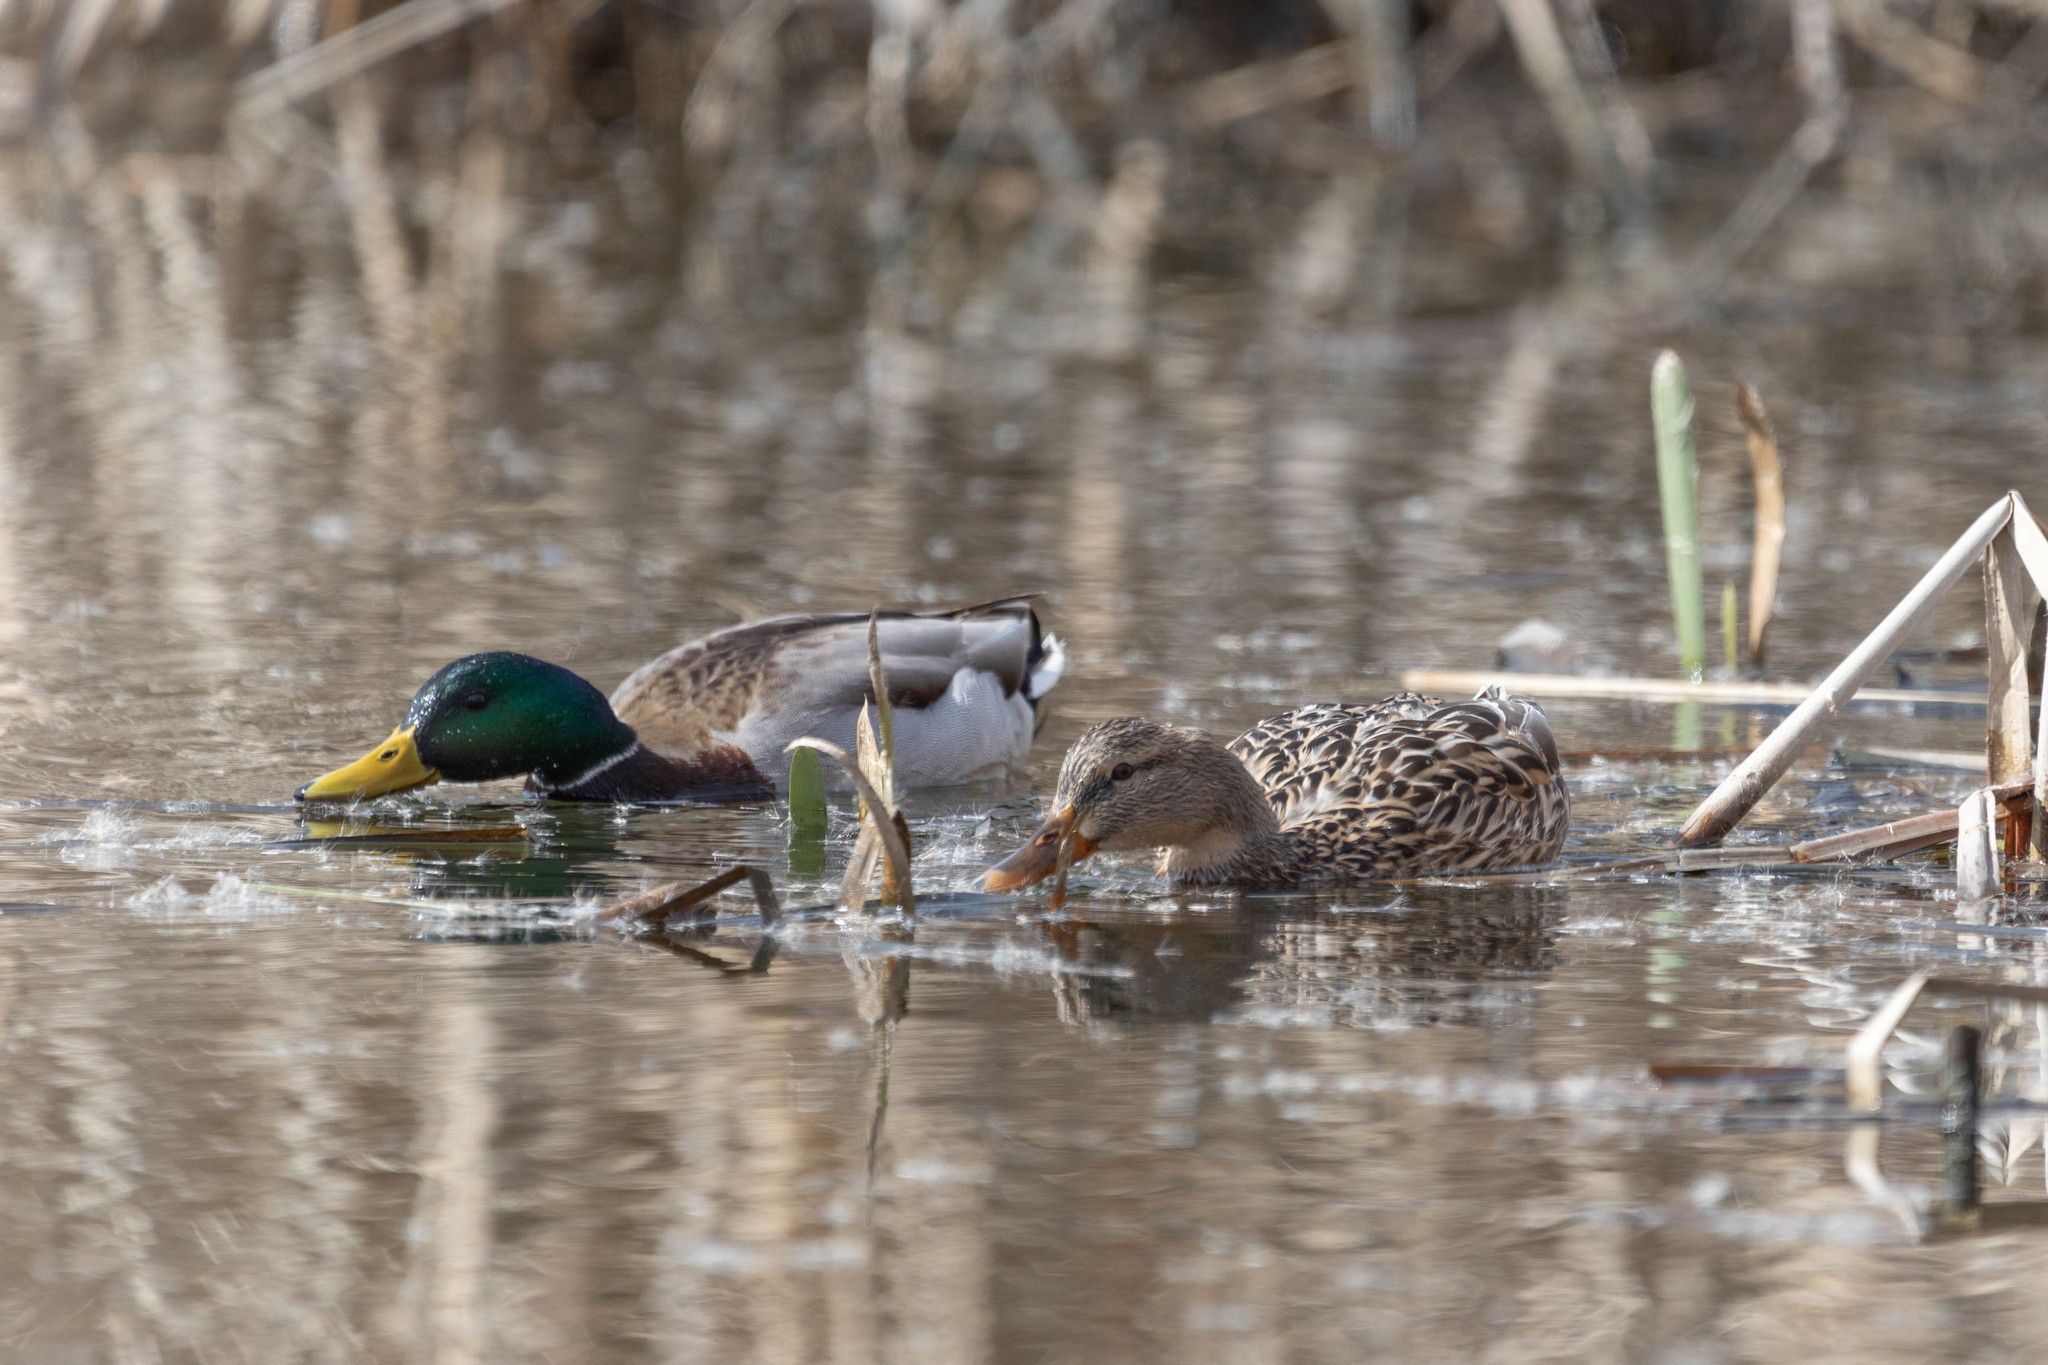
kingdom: Animalia
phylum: Chordata
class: Aves
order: Anseriformes
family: Anatidae
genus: Anas
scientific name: Anas platyrhynchos
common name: Mallard
